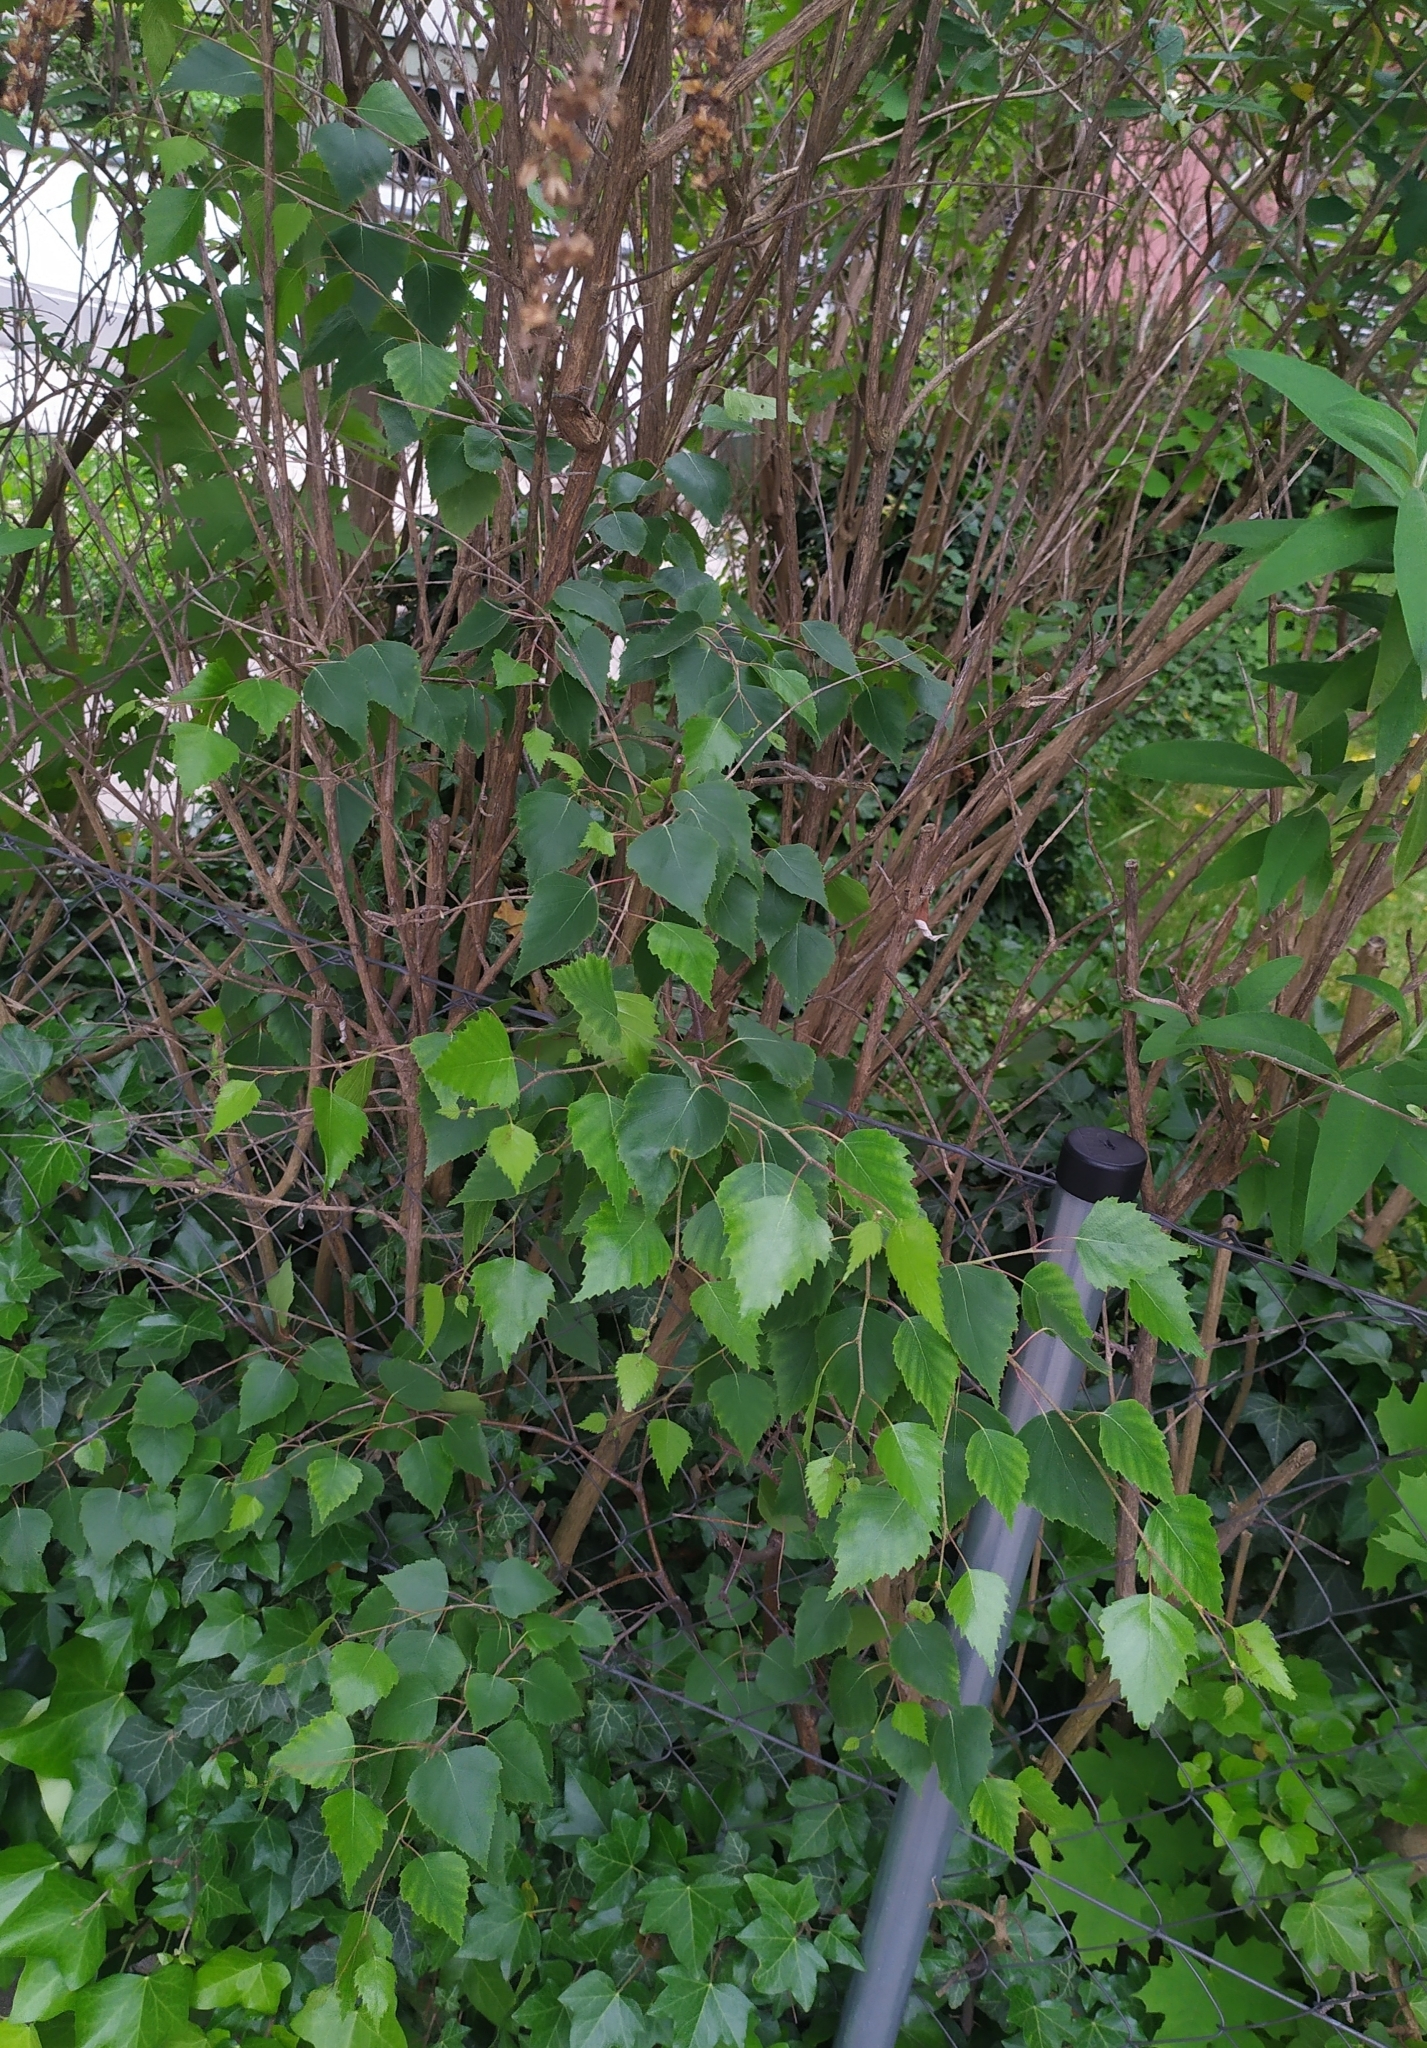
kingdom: Plantae
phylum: Tracheophyta
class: Magnoliopsida
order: Fagales
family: Betulaceae
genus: Betula
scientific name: Betula pendula
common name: Silver birch
